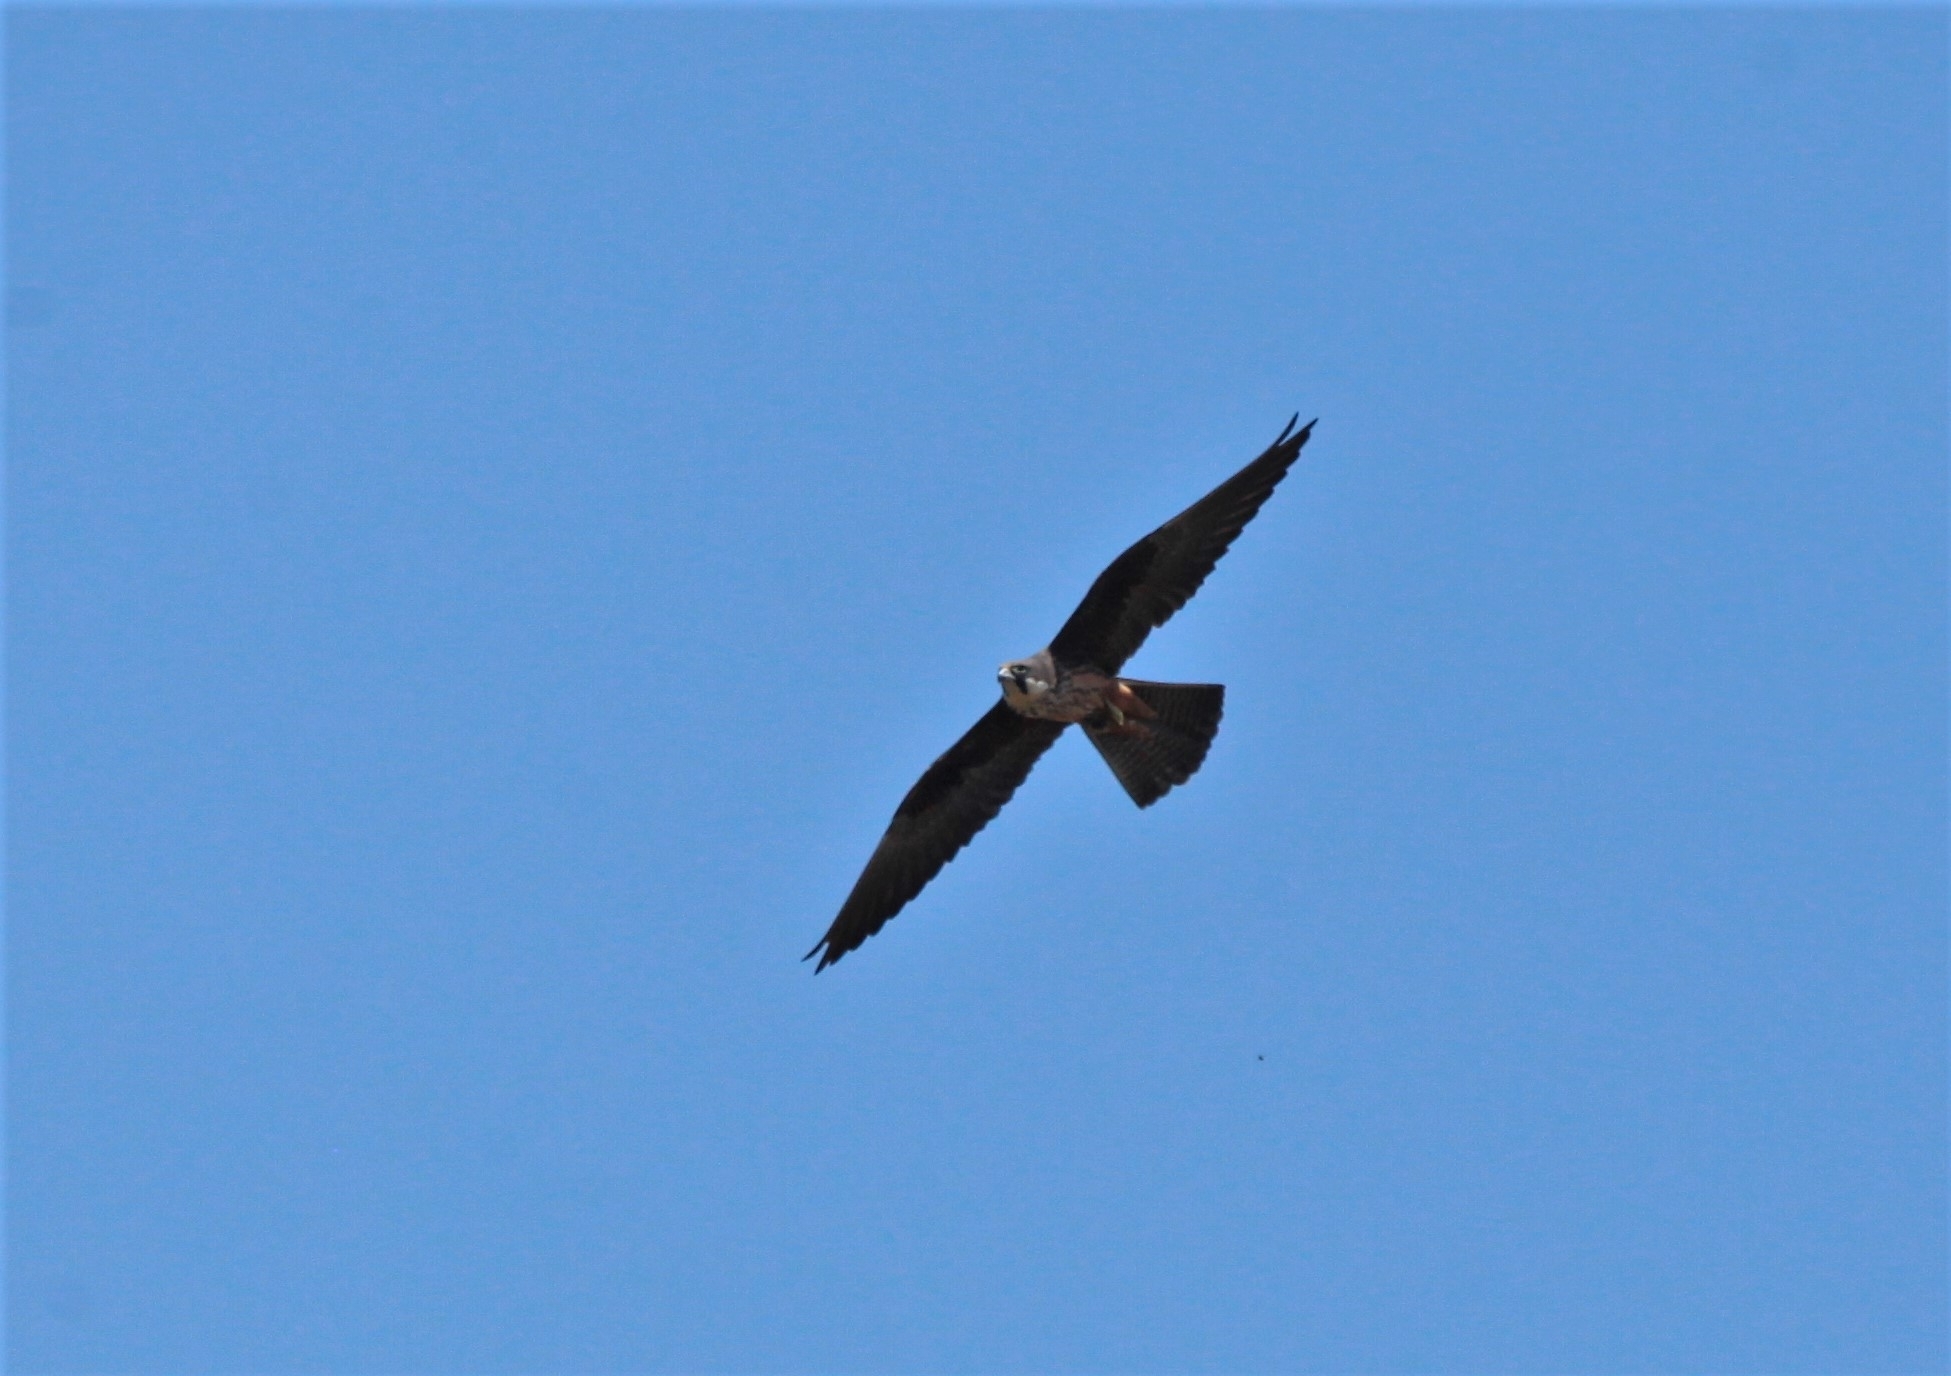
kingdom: Animalia
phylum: Chordata
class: Aves
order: Falconiformes
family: Falconidae
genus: Falco
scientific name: Falco eleonorae
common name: Eleonora's falcon
